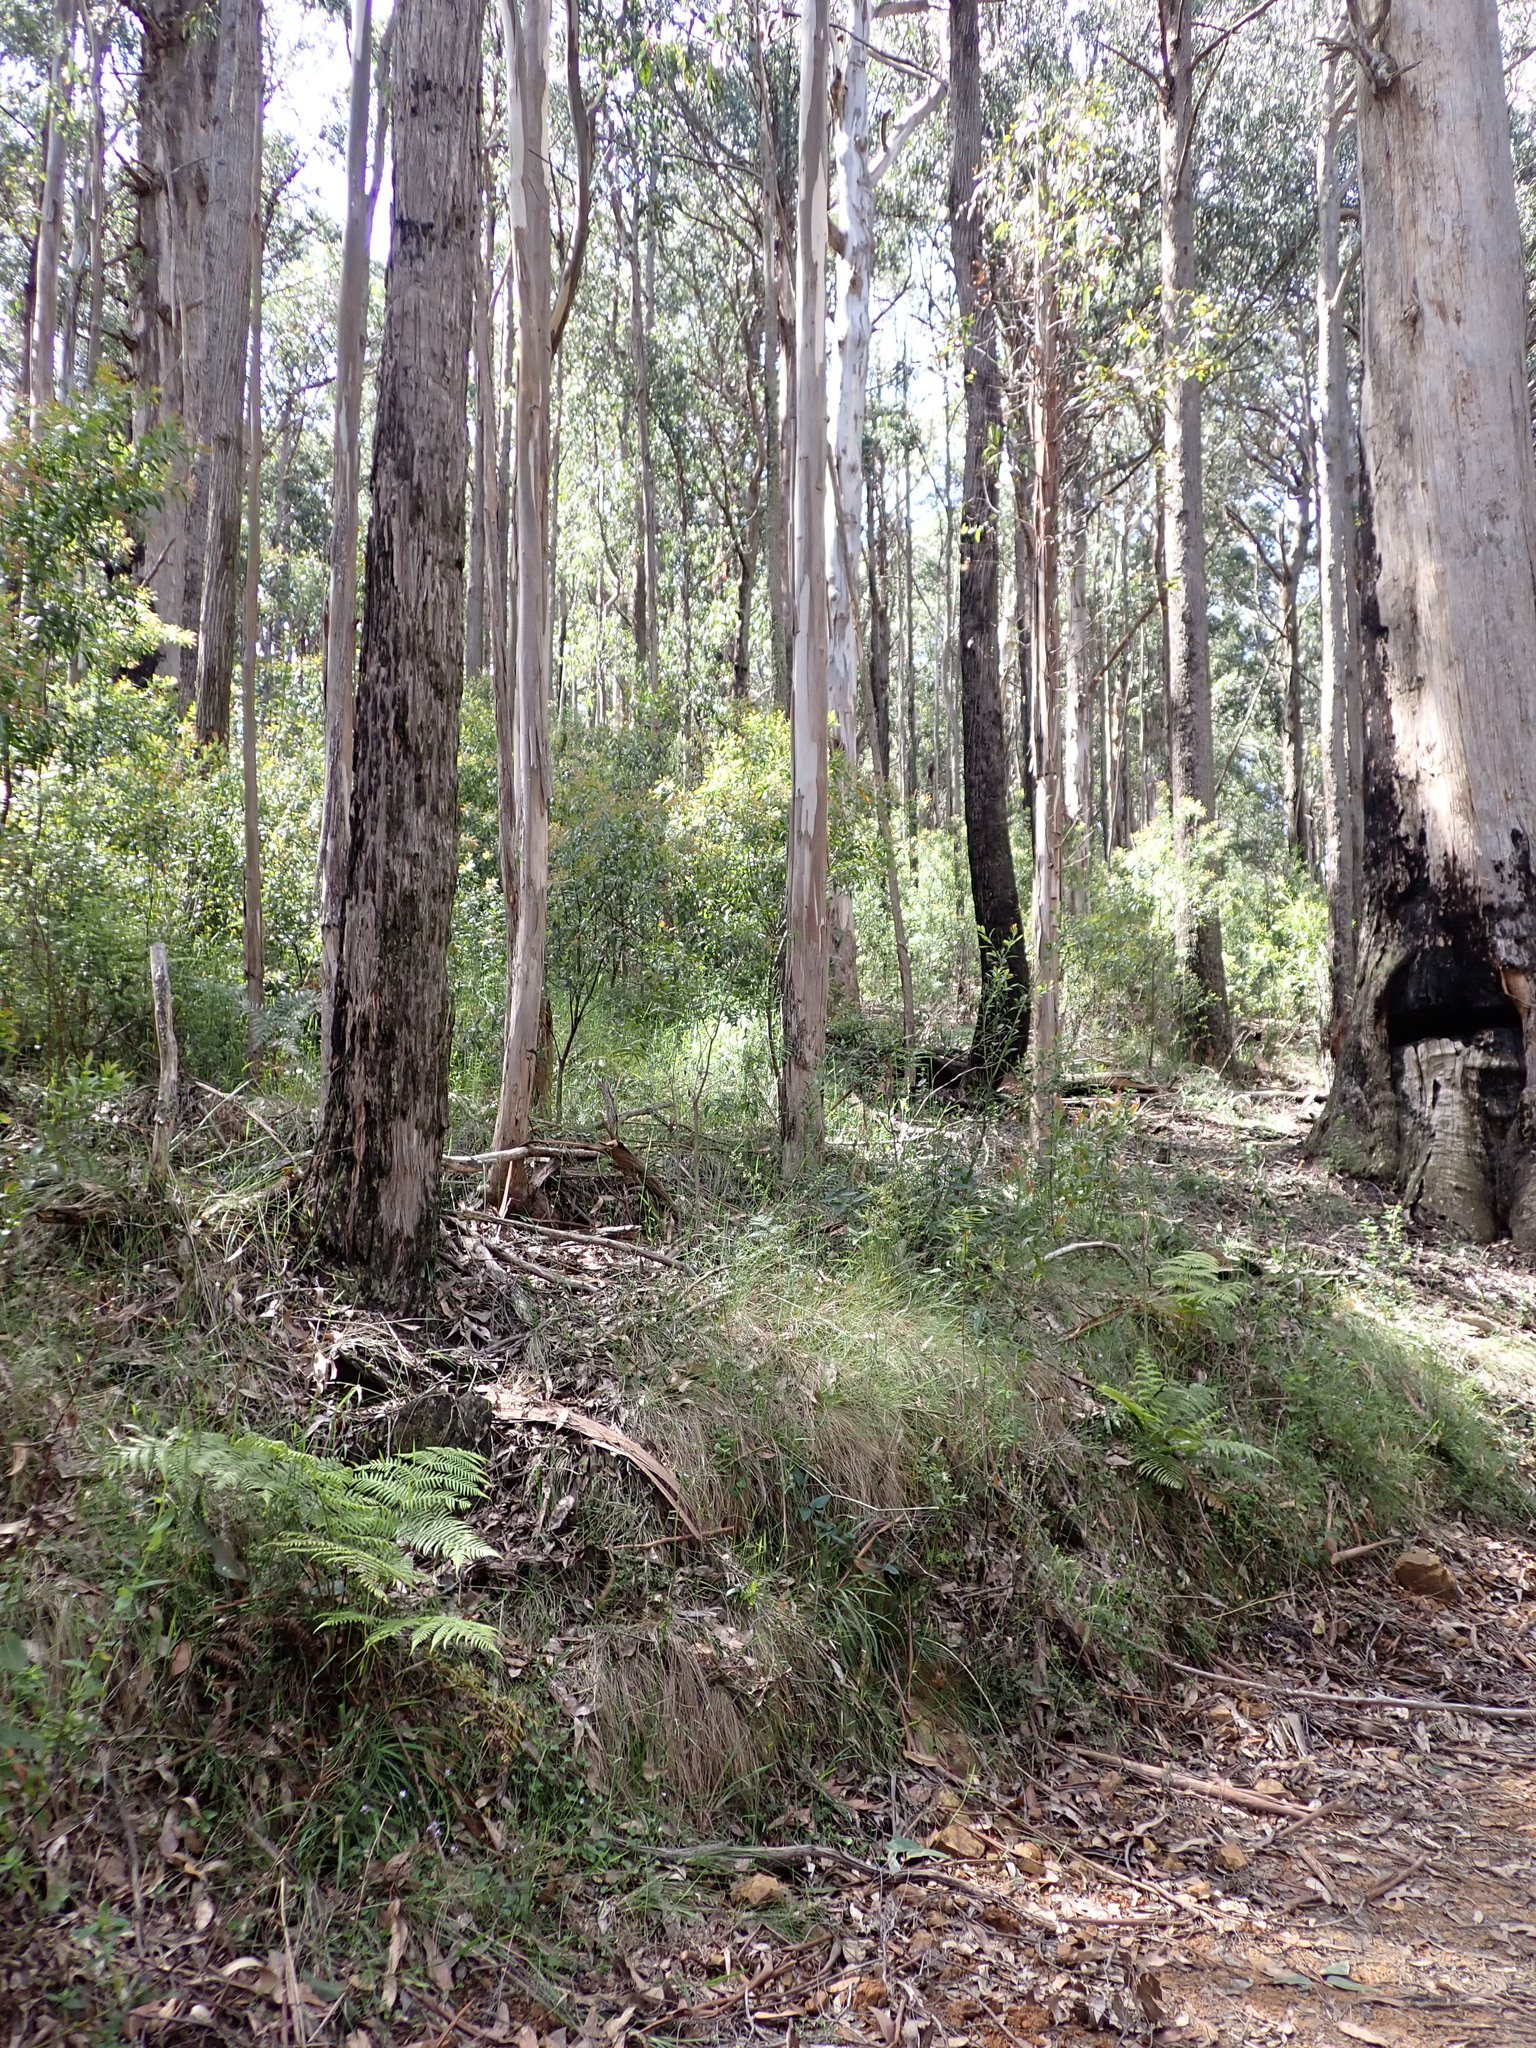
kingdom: Plantae
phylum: Tracheophyta
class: Magnoliopsida
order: Malpighiales
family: Violaceae
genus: Viola
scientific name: Viola hederacea
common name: Australian violet
